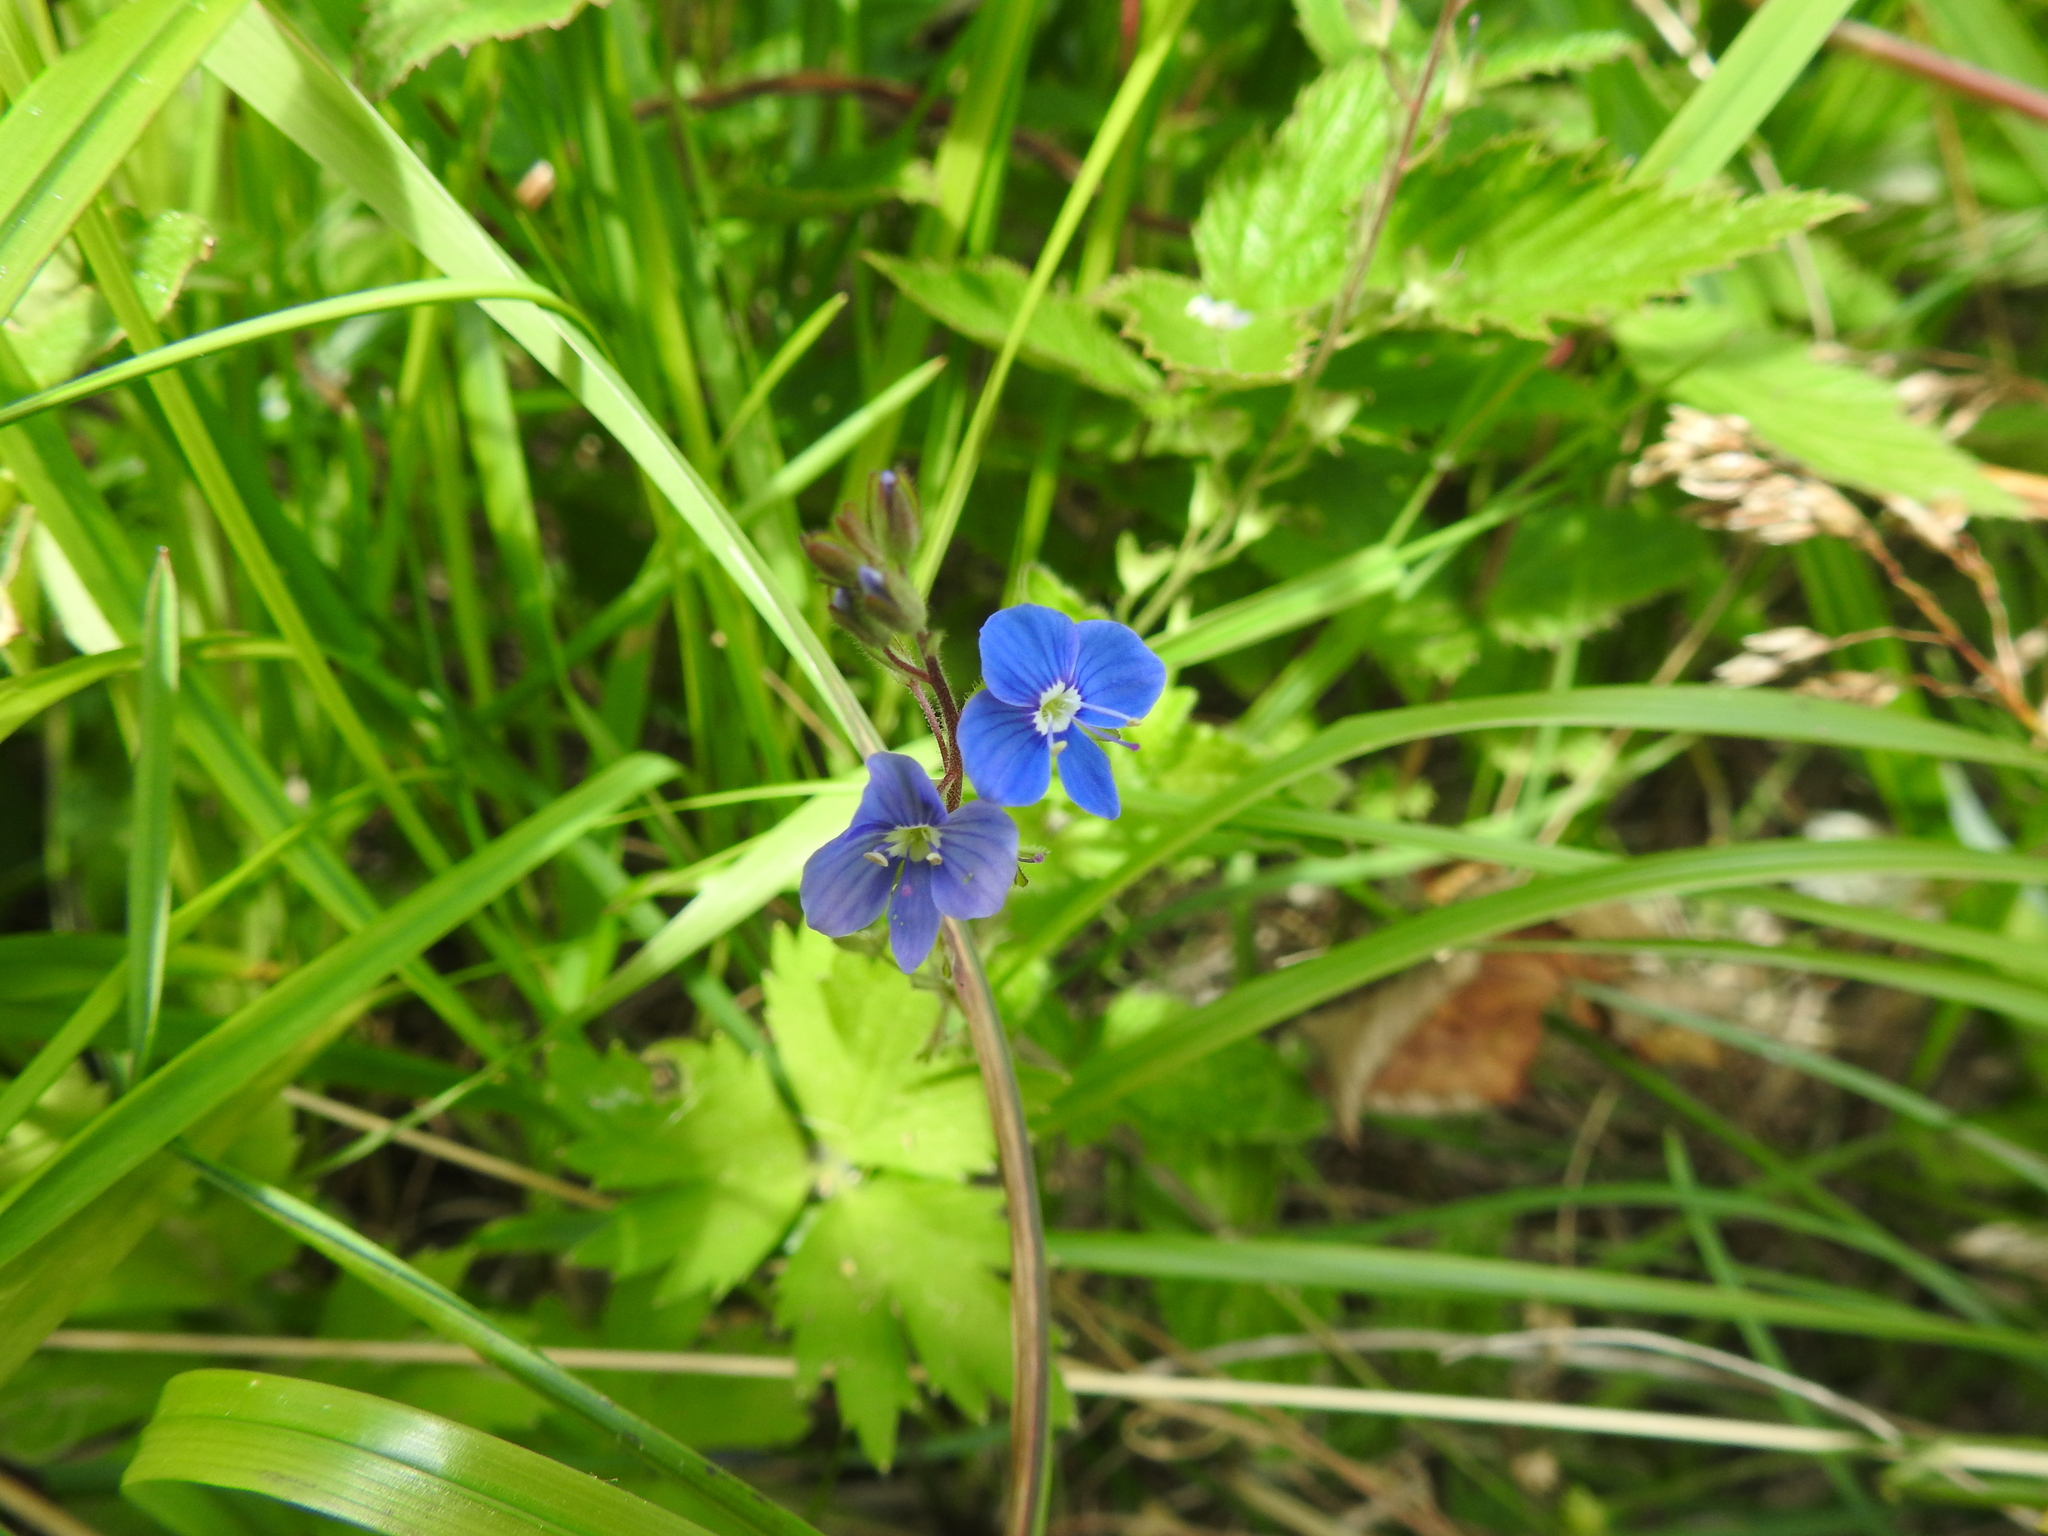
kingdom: Plantae
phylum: Tracheophyta
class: Magnoliopsida
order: Lamiales
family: Plantaginaceae
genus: Veronica
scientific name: Veronica chamaedrys
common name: Germander speedwell
